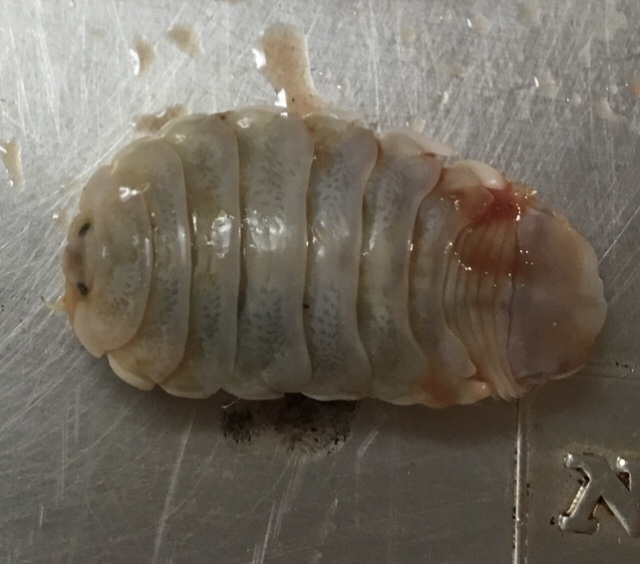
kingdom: Animalia
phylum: Arthropoda
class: Malacostraca
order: Isopoda
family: Cymothoidae
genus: Elthusa
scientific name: Elthusa vulgaris
